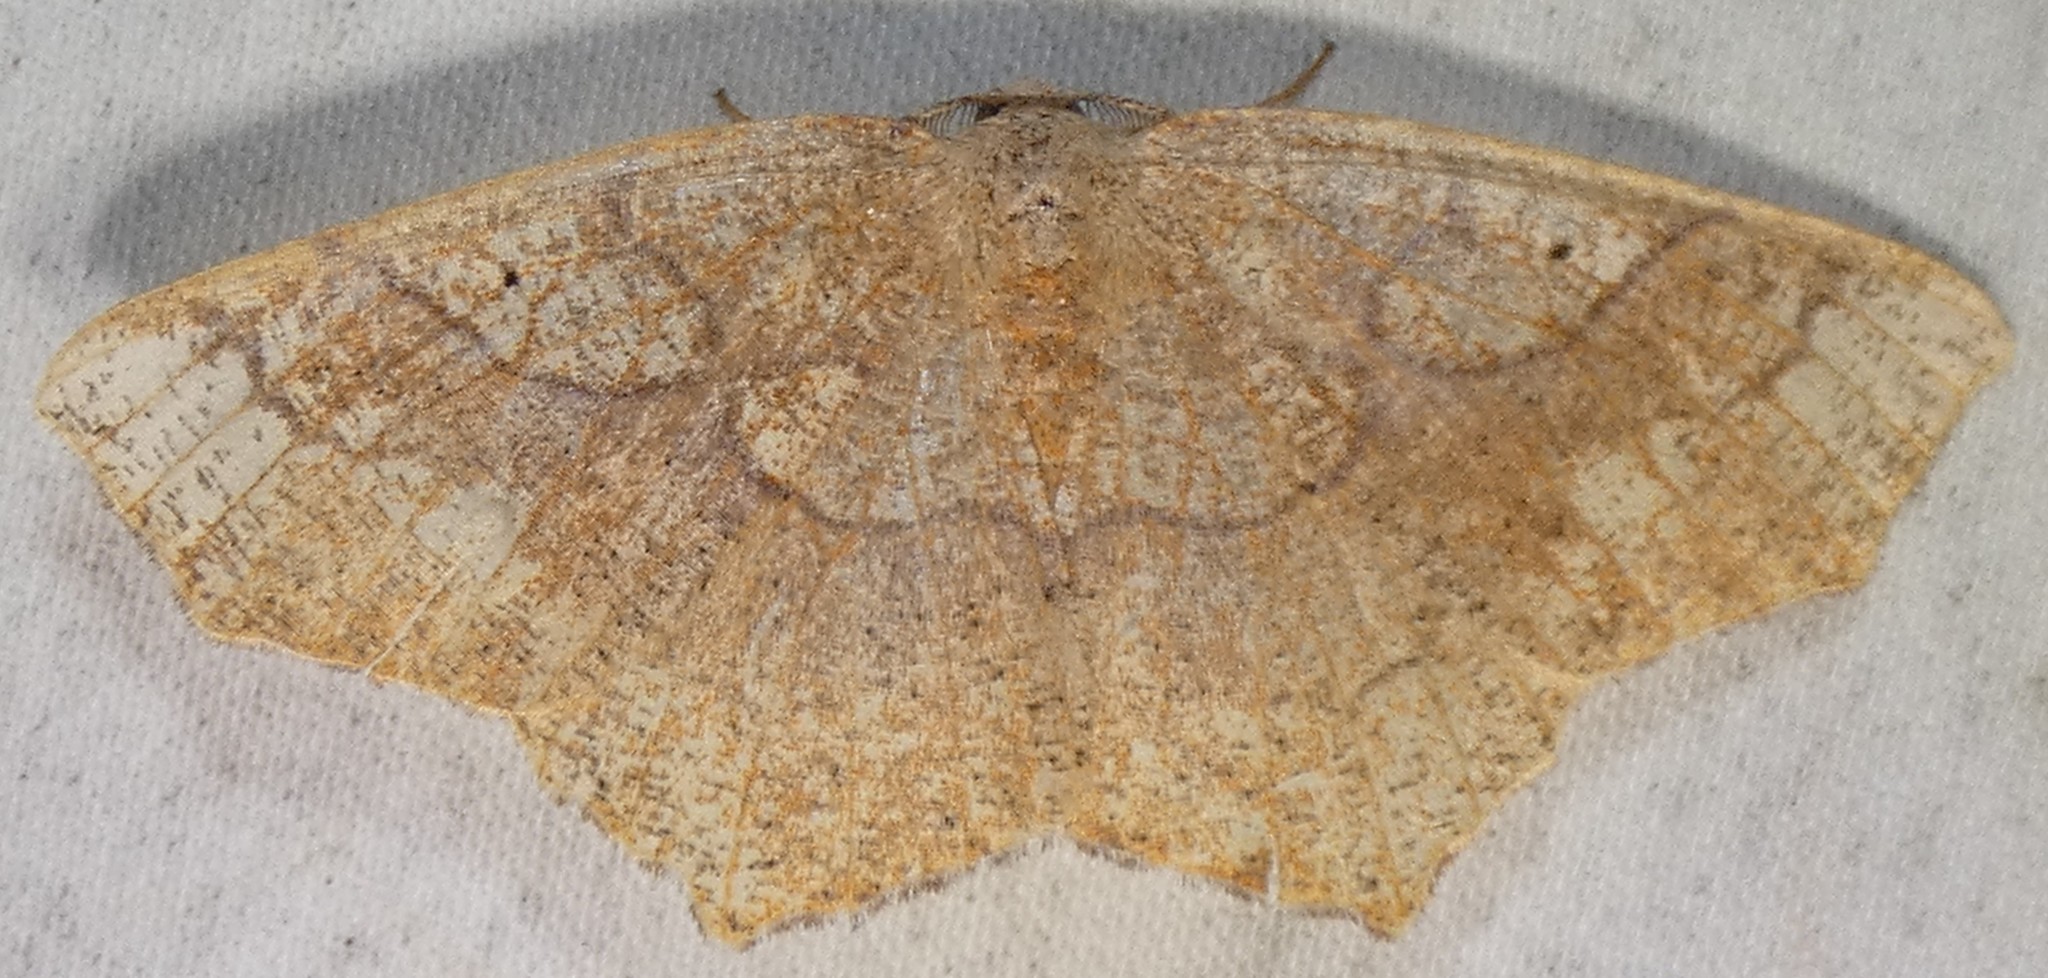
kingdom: Animalia
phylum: Arthropoda
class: Insecta
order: Lepidoptera
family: Geometridae
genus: Besma
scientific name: Besma quercivoraria
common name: Oak besma
